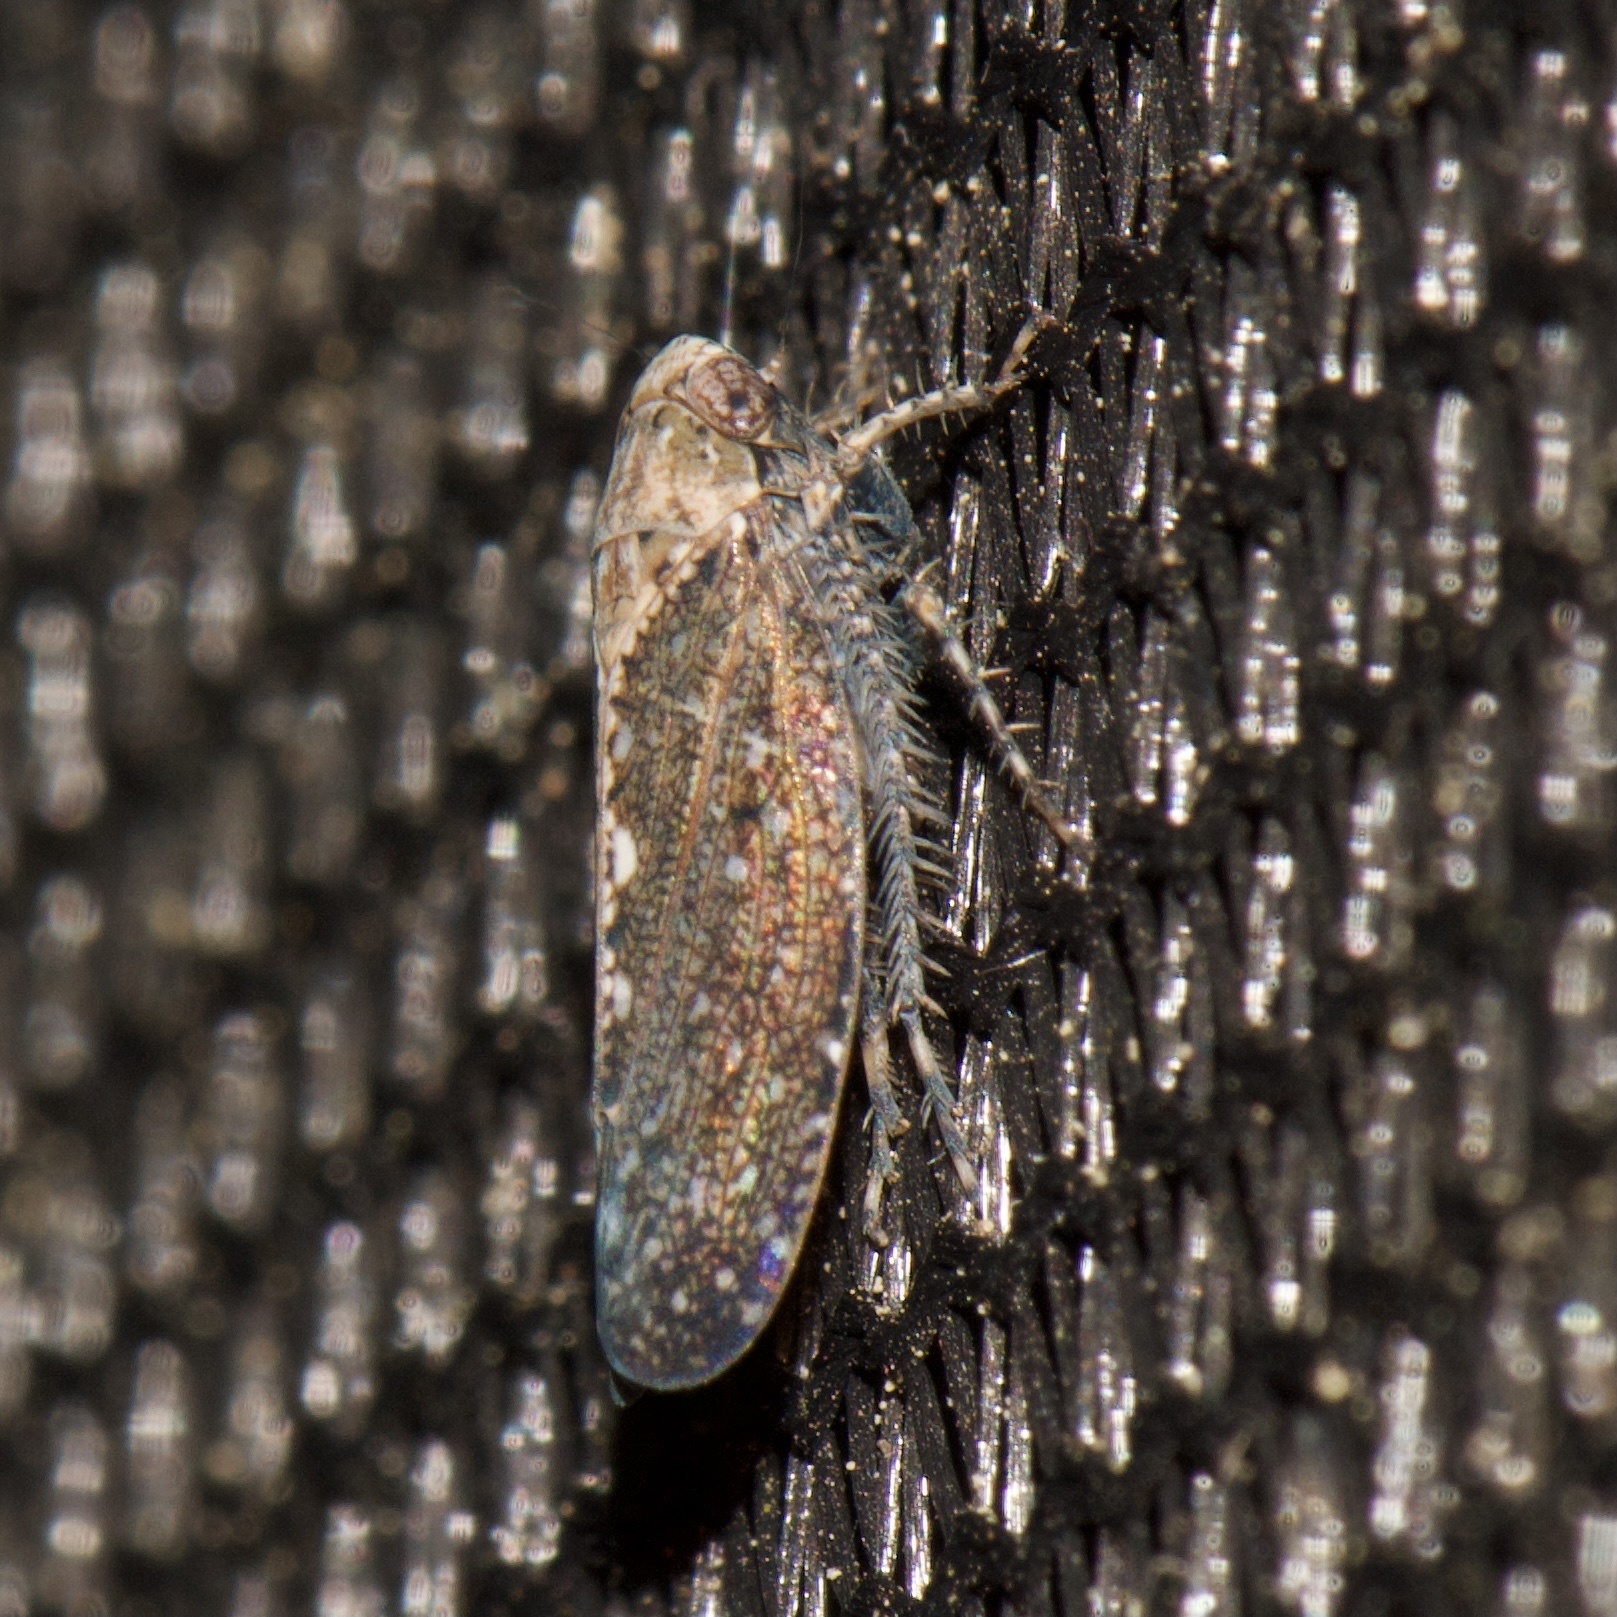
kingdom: Animalia
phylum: Arthropoda
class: Insecta
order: Hemiptera
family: Cicadellidae
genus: Excultanus
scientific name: Excultanus excultus
